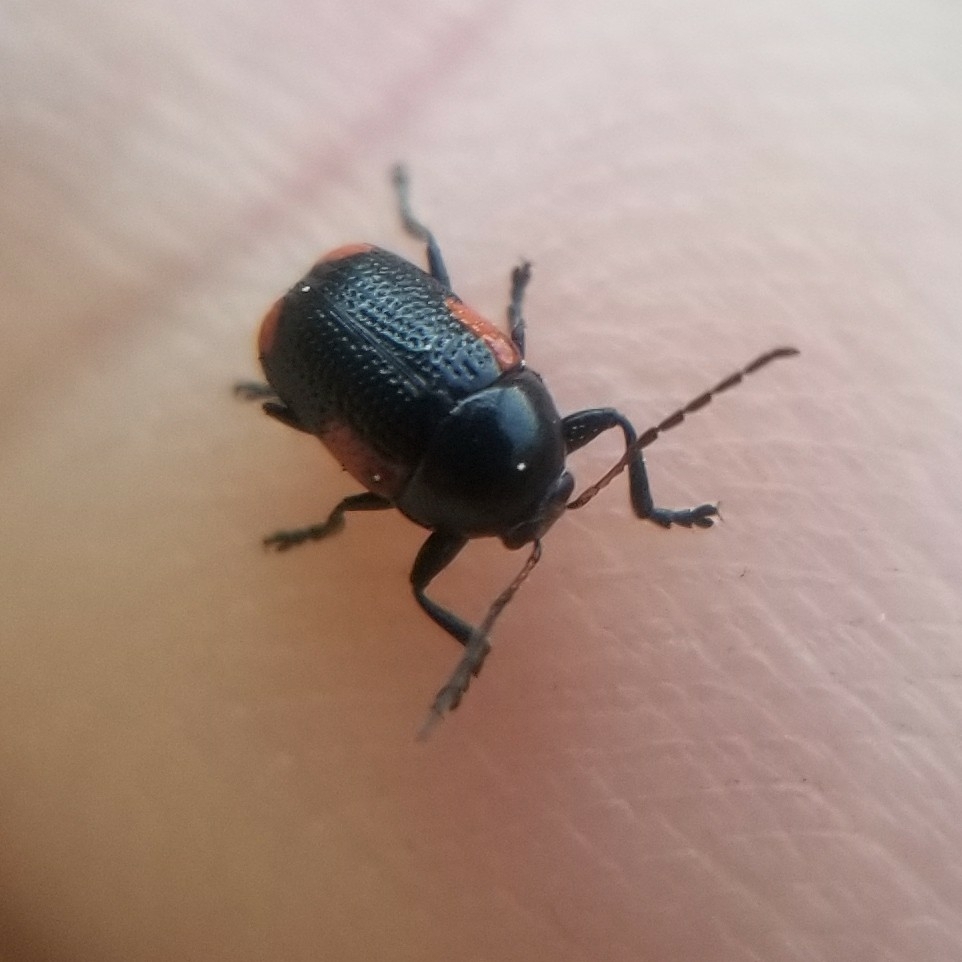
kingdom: Animalia
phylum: Arthropoda
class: Insecta
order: Coleoptera
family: Chrysomelidae
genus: Cryptocephalus
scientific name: Cryptocephalus notatus
